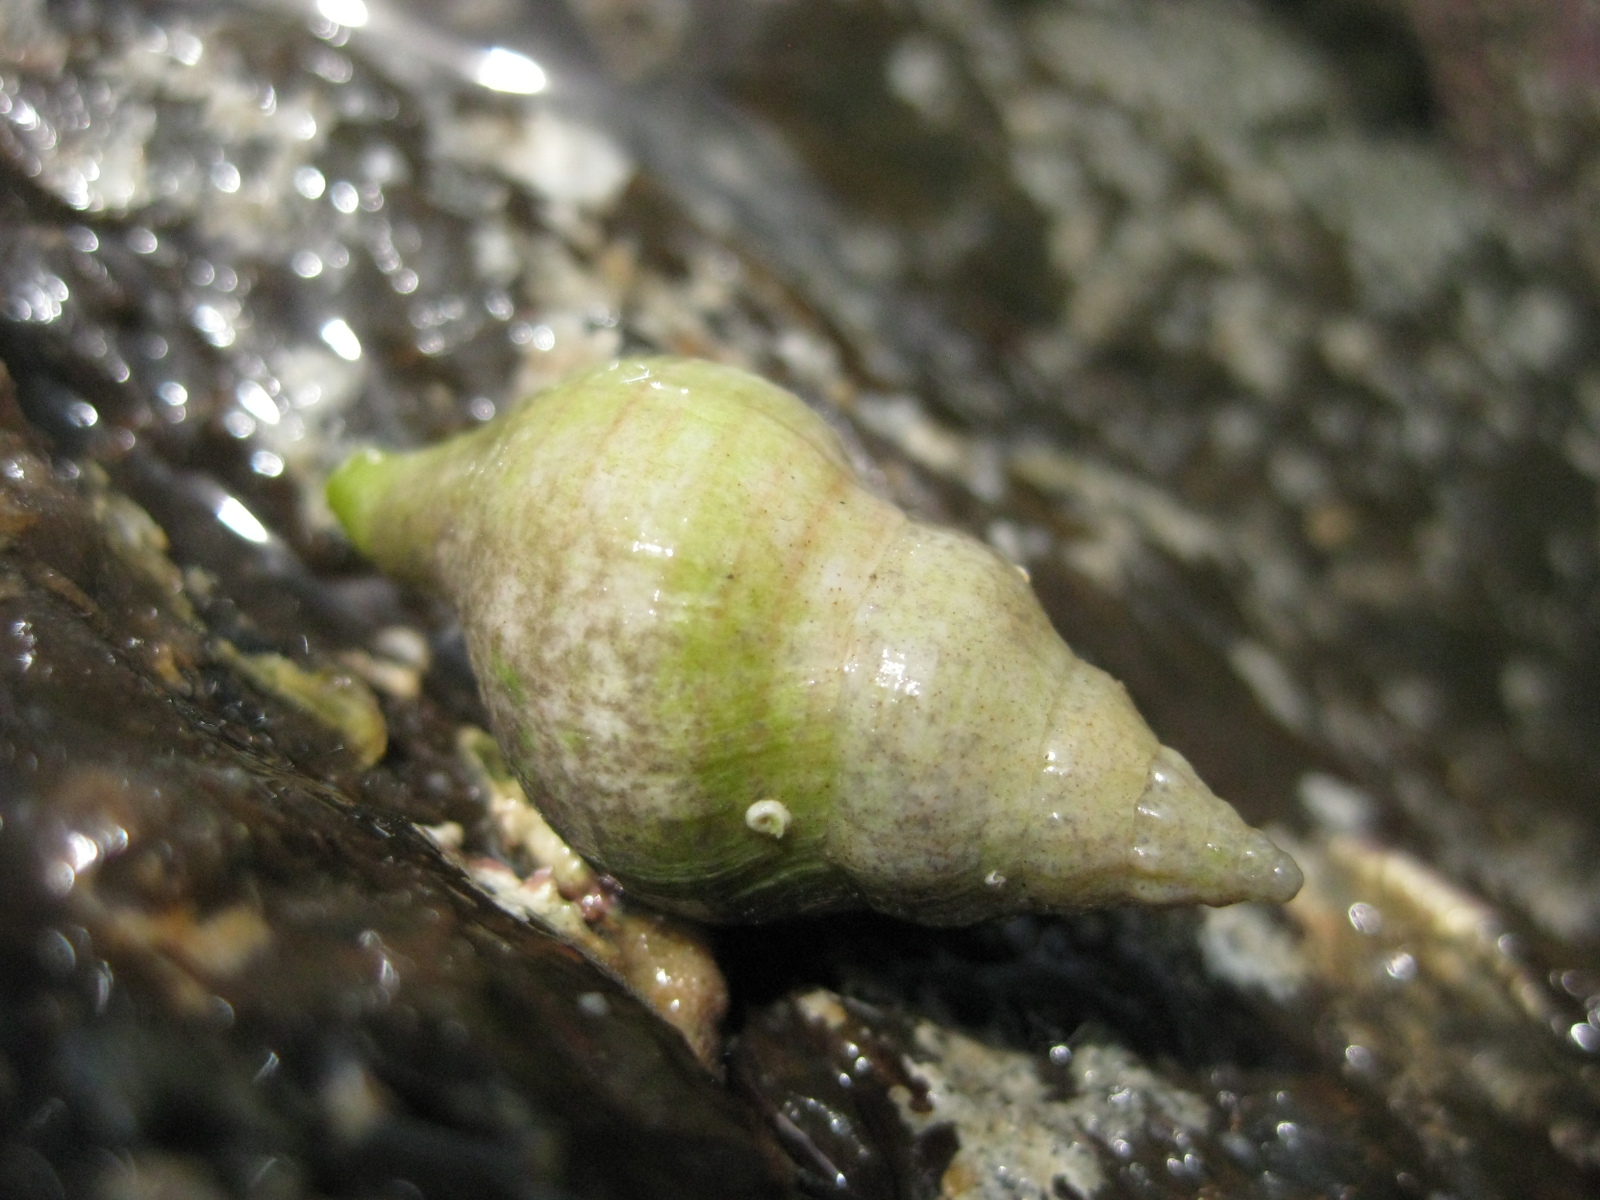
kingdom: Animalia
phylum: Mollusca
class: Gastropoda
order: Neogastropoda
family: Tudiclidae
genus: Buccinulum
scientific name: Buccinulum linea
